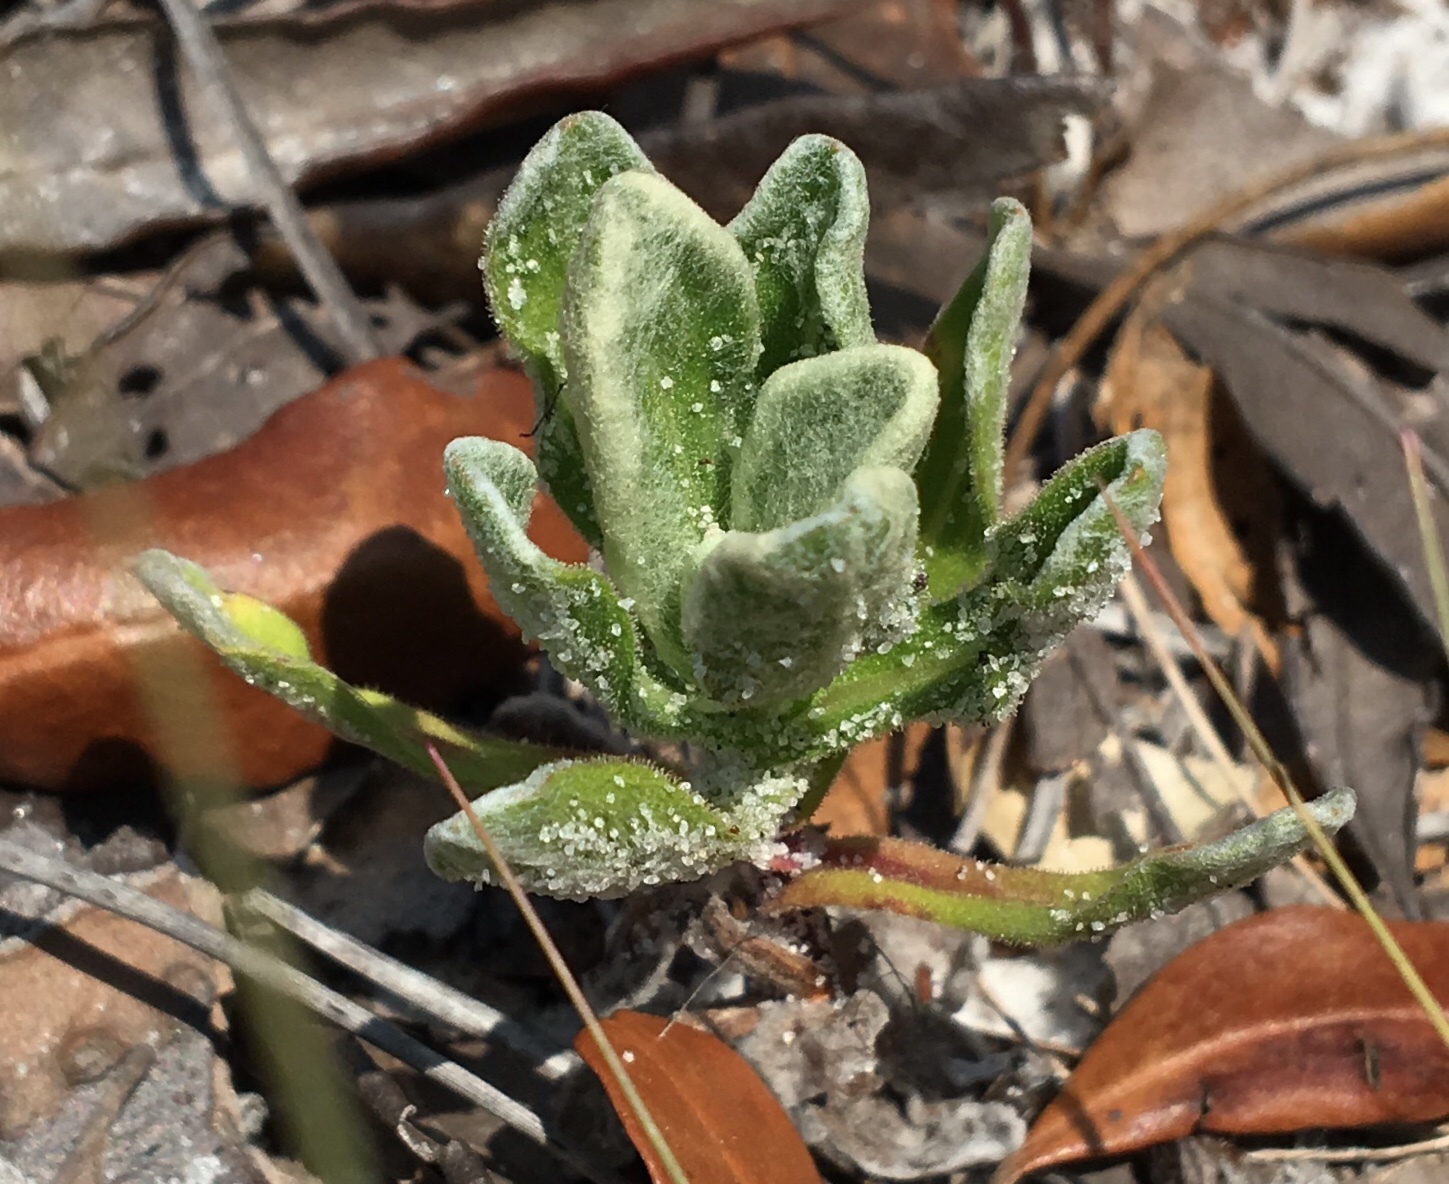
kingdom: Plantae
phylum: Tracheophyta
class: Magnoliopsida
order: Asterales
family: Asteraceae
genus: Chrysopsis
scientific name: Chrysopsis godfreyi
